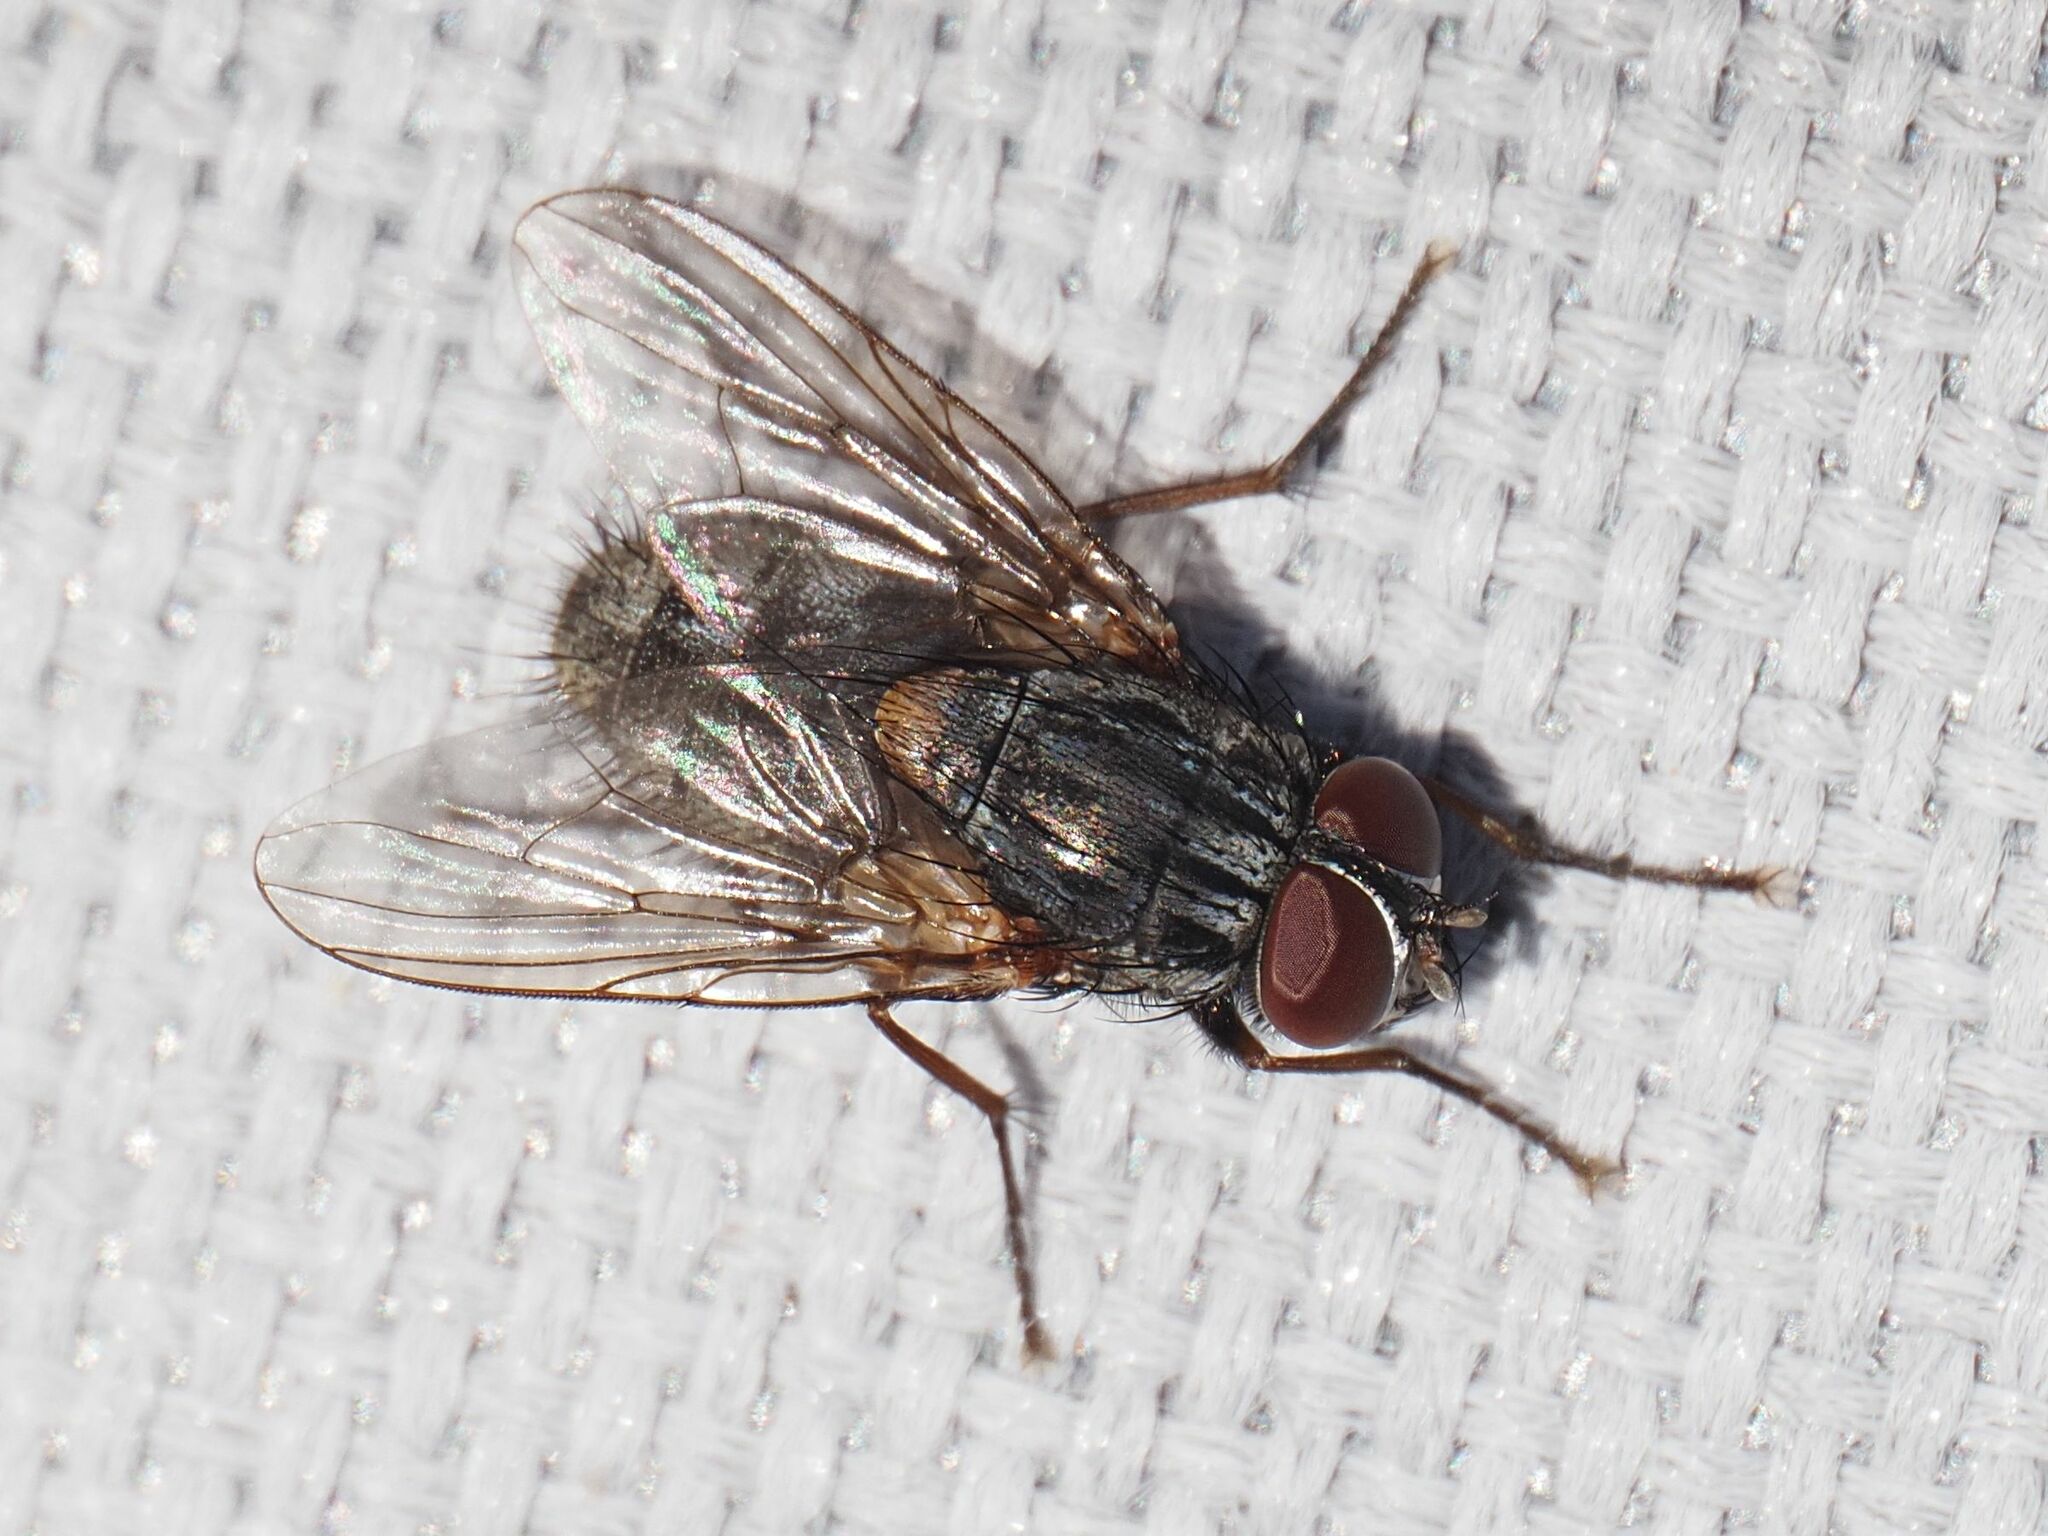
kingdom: Animalia
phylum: Arthropoda
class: Insecta
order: Diptera
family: Muscidae
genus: Muscina
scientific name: Muscina stabulans
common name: False stable fly
